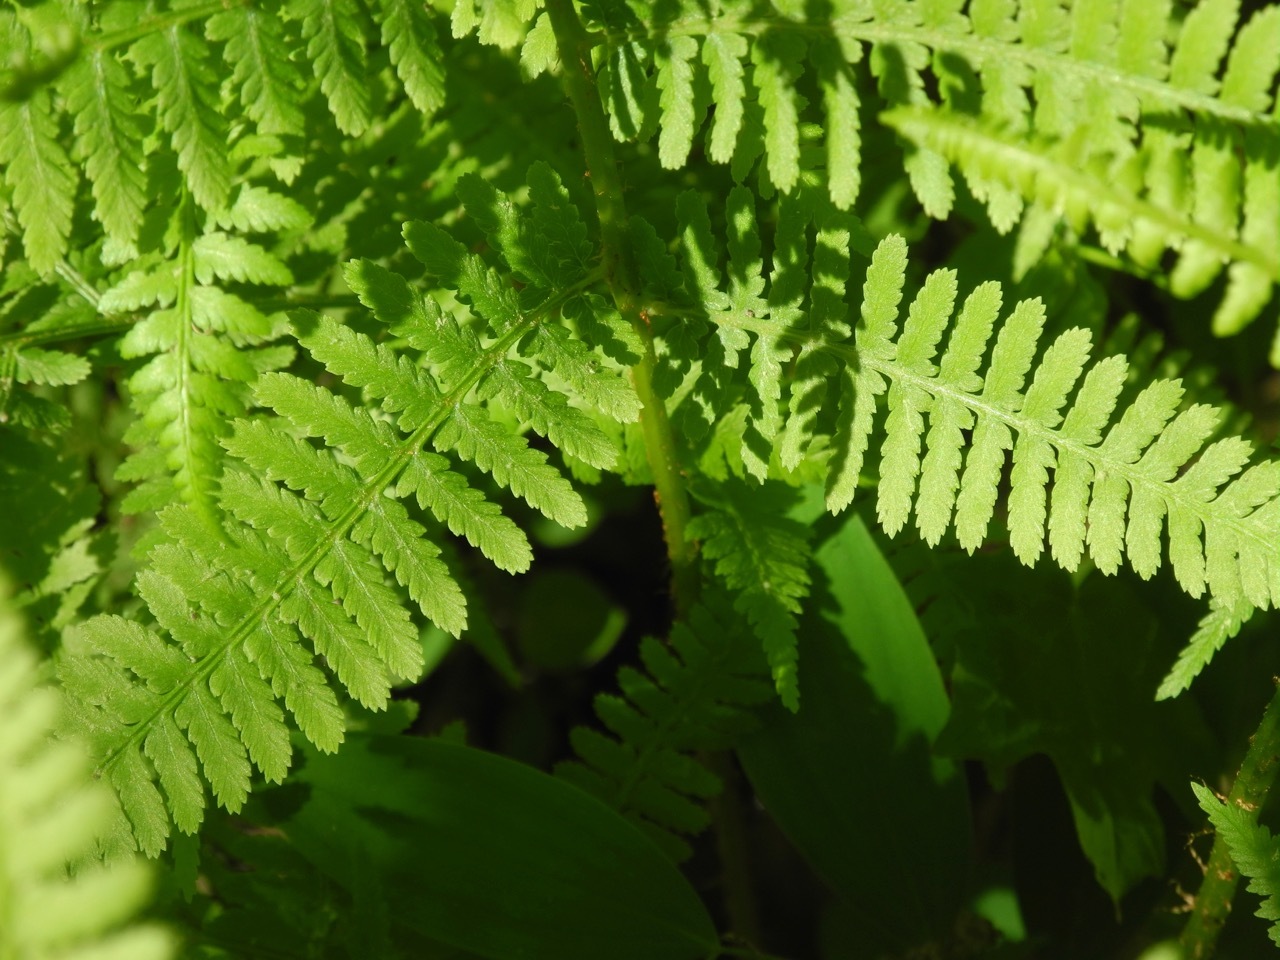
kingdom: Plantae
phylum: Tracheophyta
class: Polypodiopsida
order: Polypodiales
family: Athyriaceae
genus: Athyrium
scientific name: Athyrium asplenioides
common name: Southern lady fern
